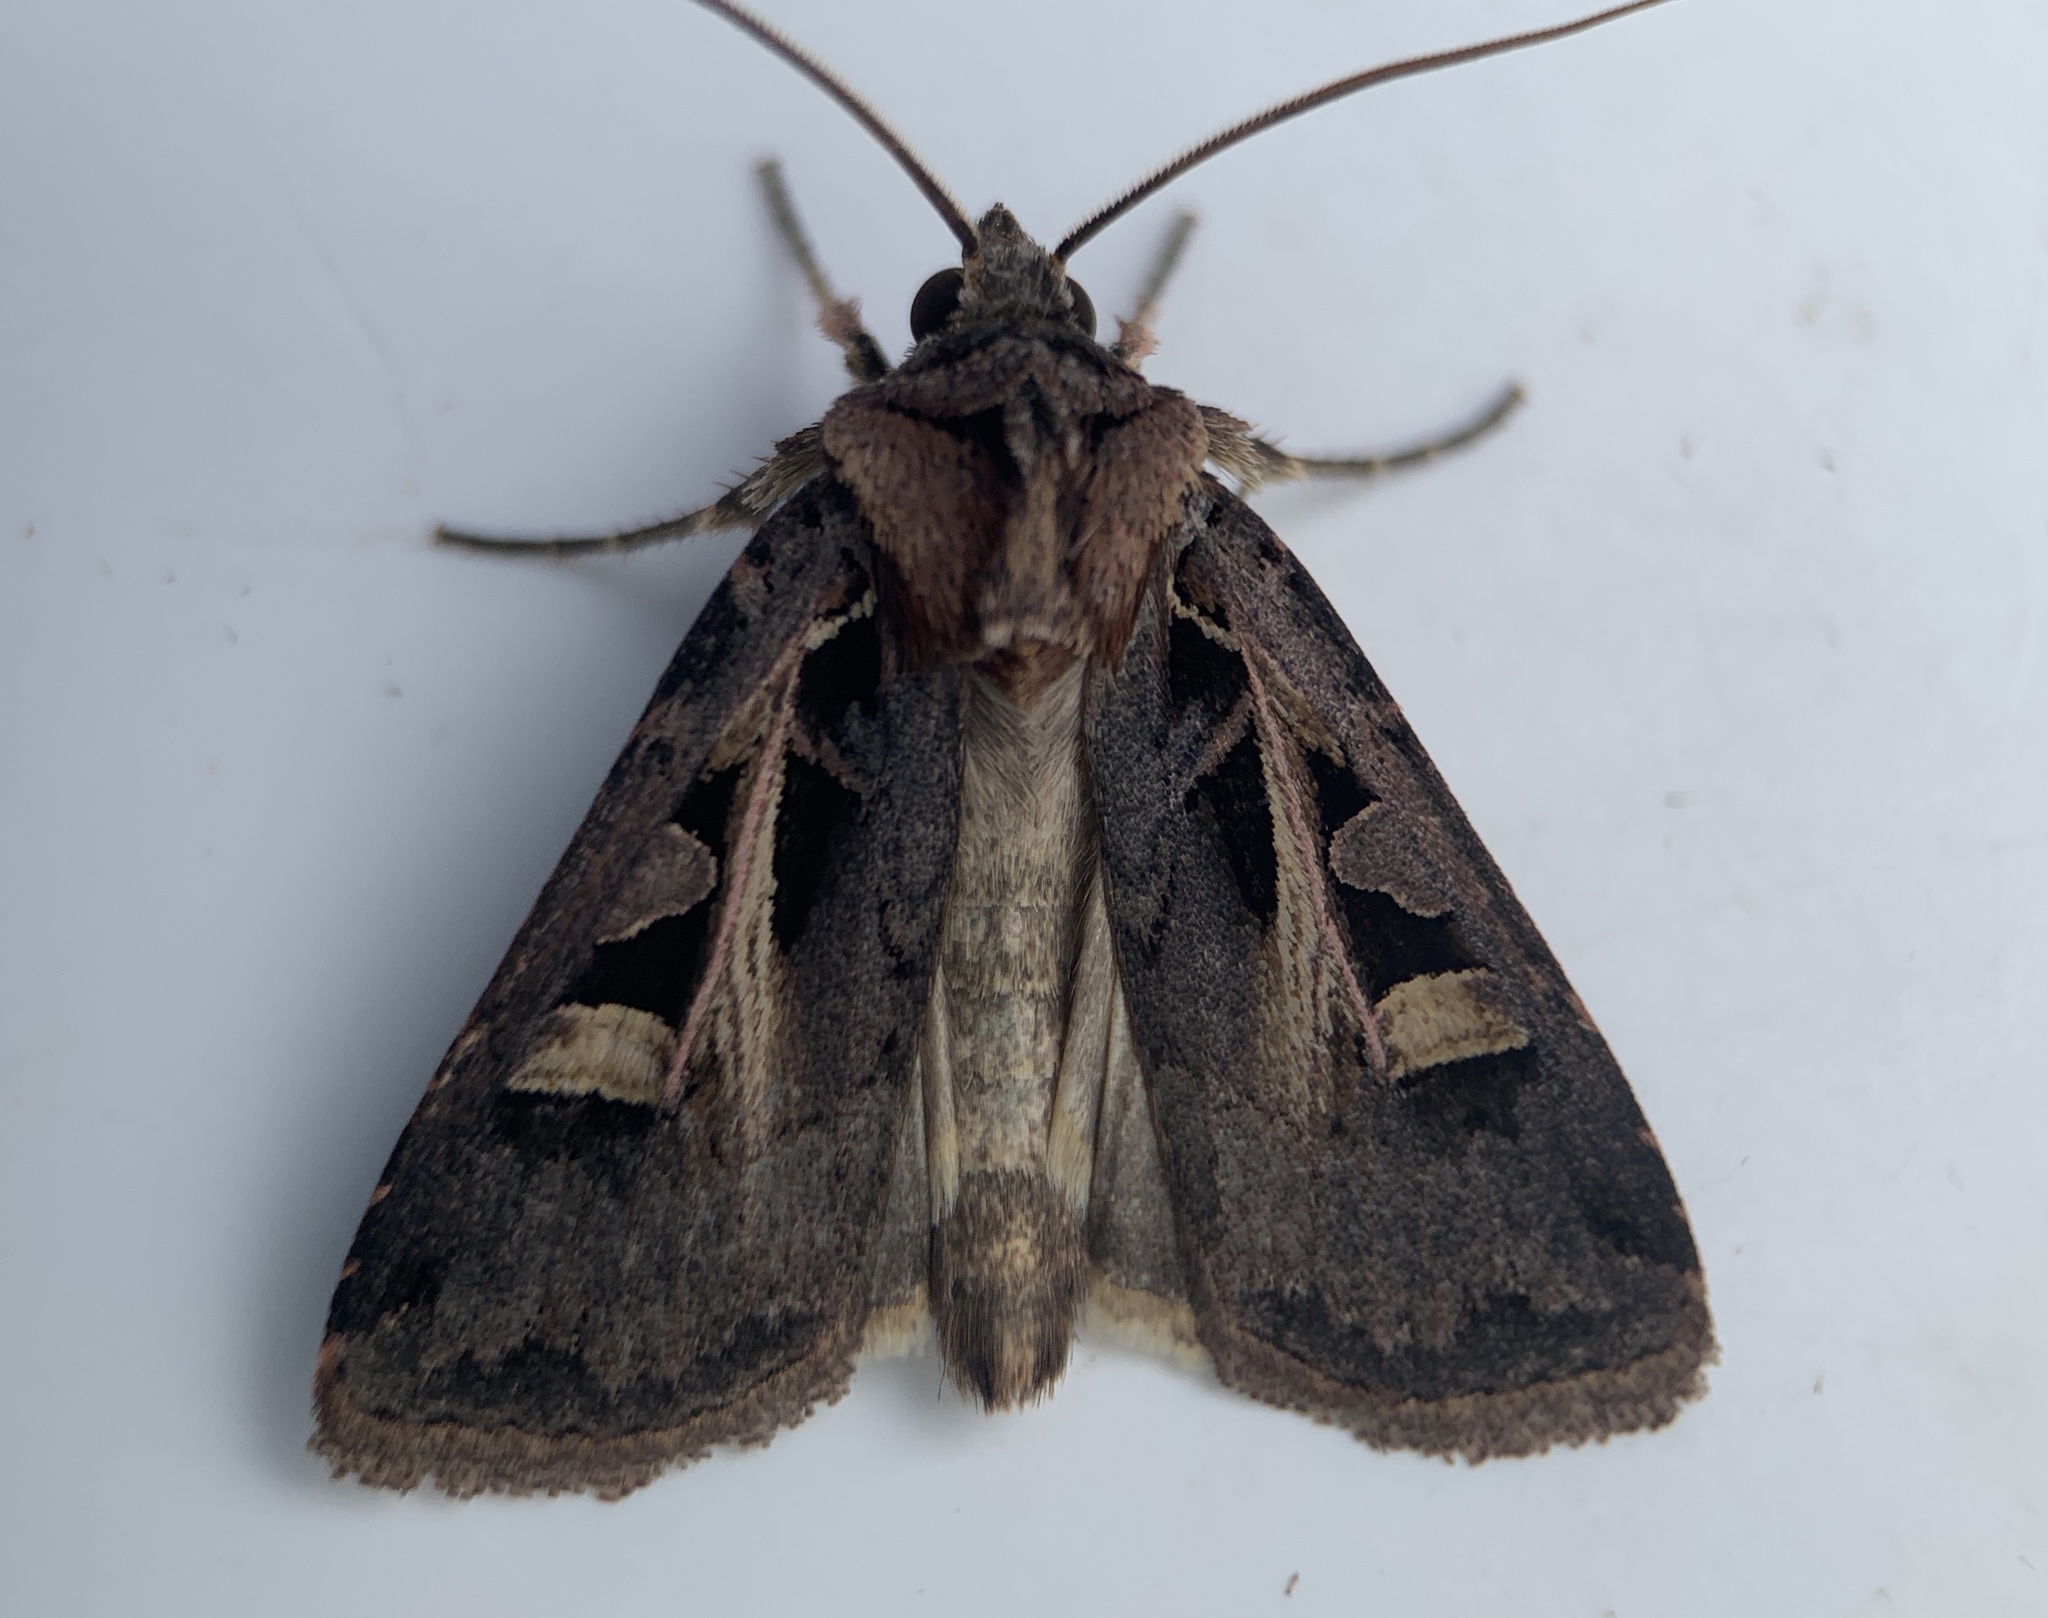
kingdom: Animalia
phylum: Arthropoda
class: Insecta
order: Lepidoptera
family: Noctuidae
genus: Feltia
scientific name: Feltia herilis
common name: Master's dart
